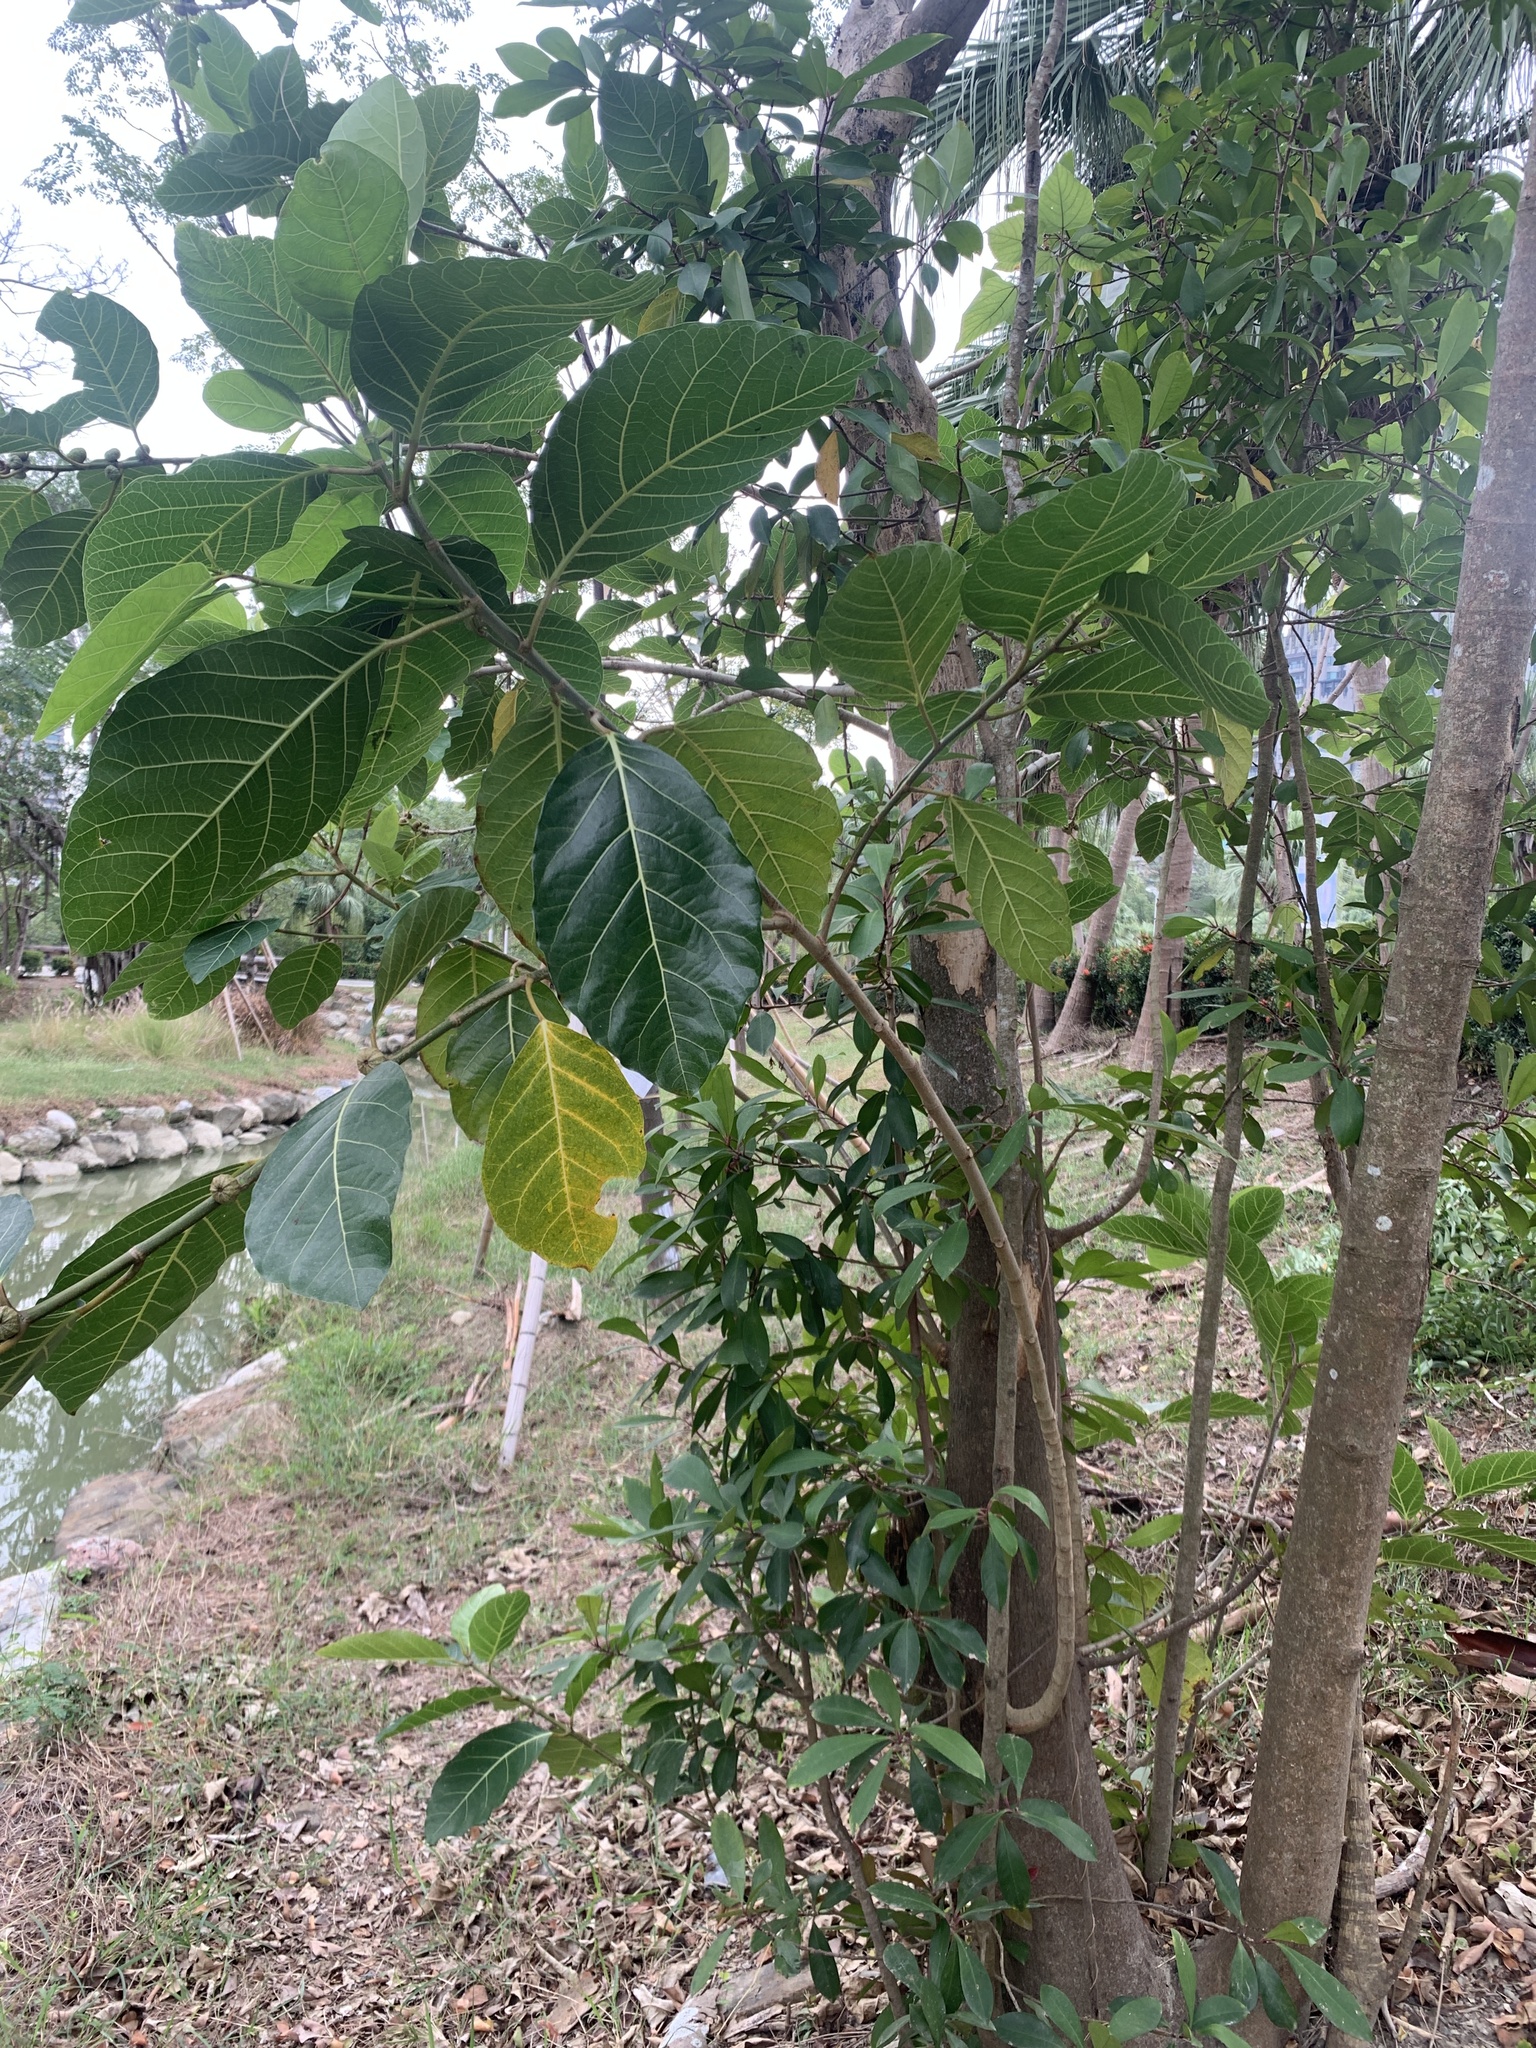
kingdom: Plantae
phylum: Tracheophyta
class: Magnoliopsida
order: Rosales
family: Moraceae
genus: Ficus
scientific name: Ficus septica
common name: Septic fig
